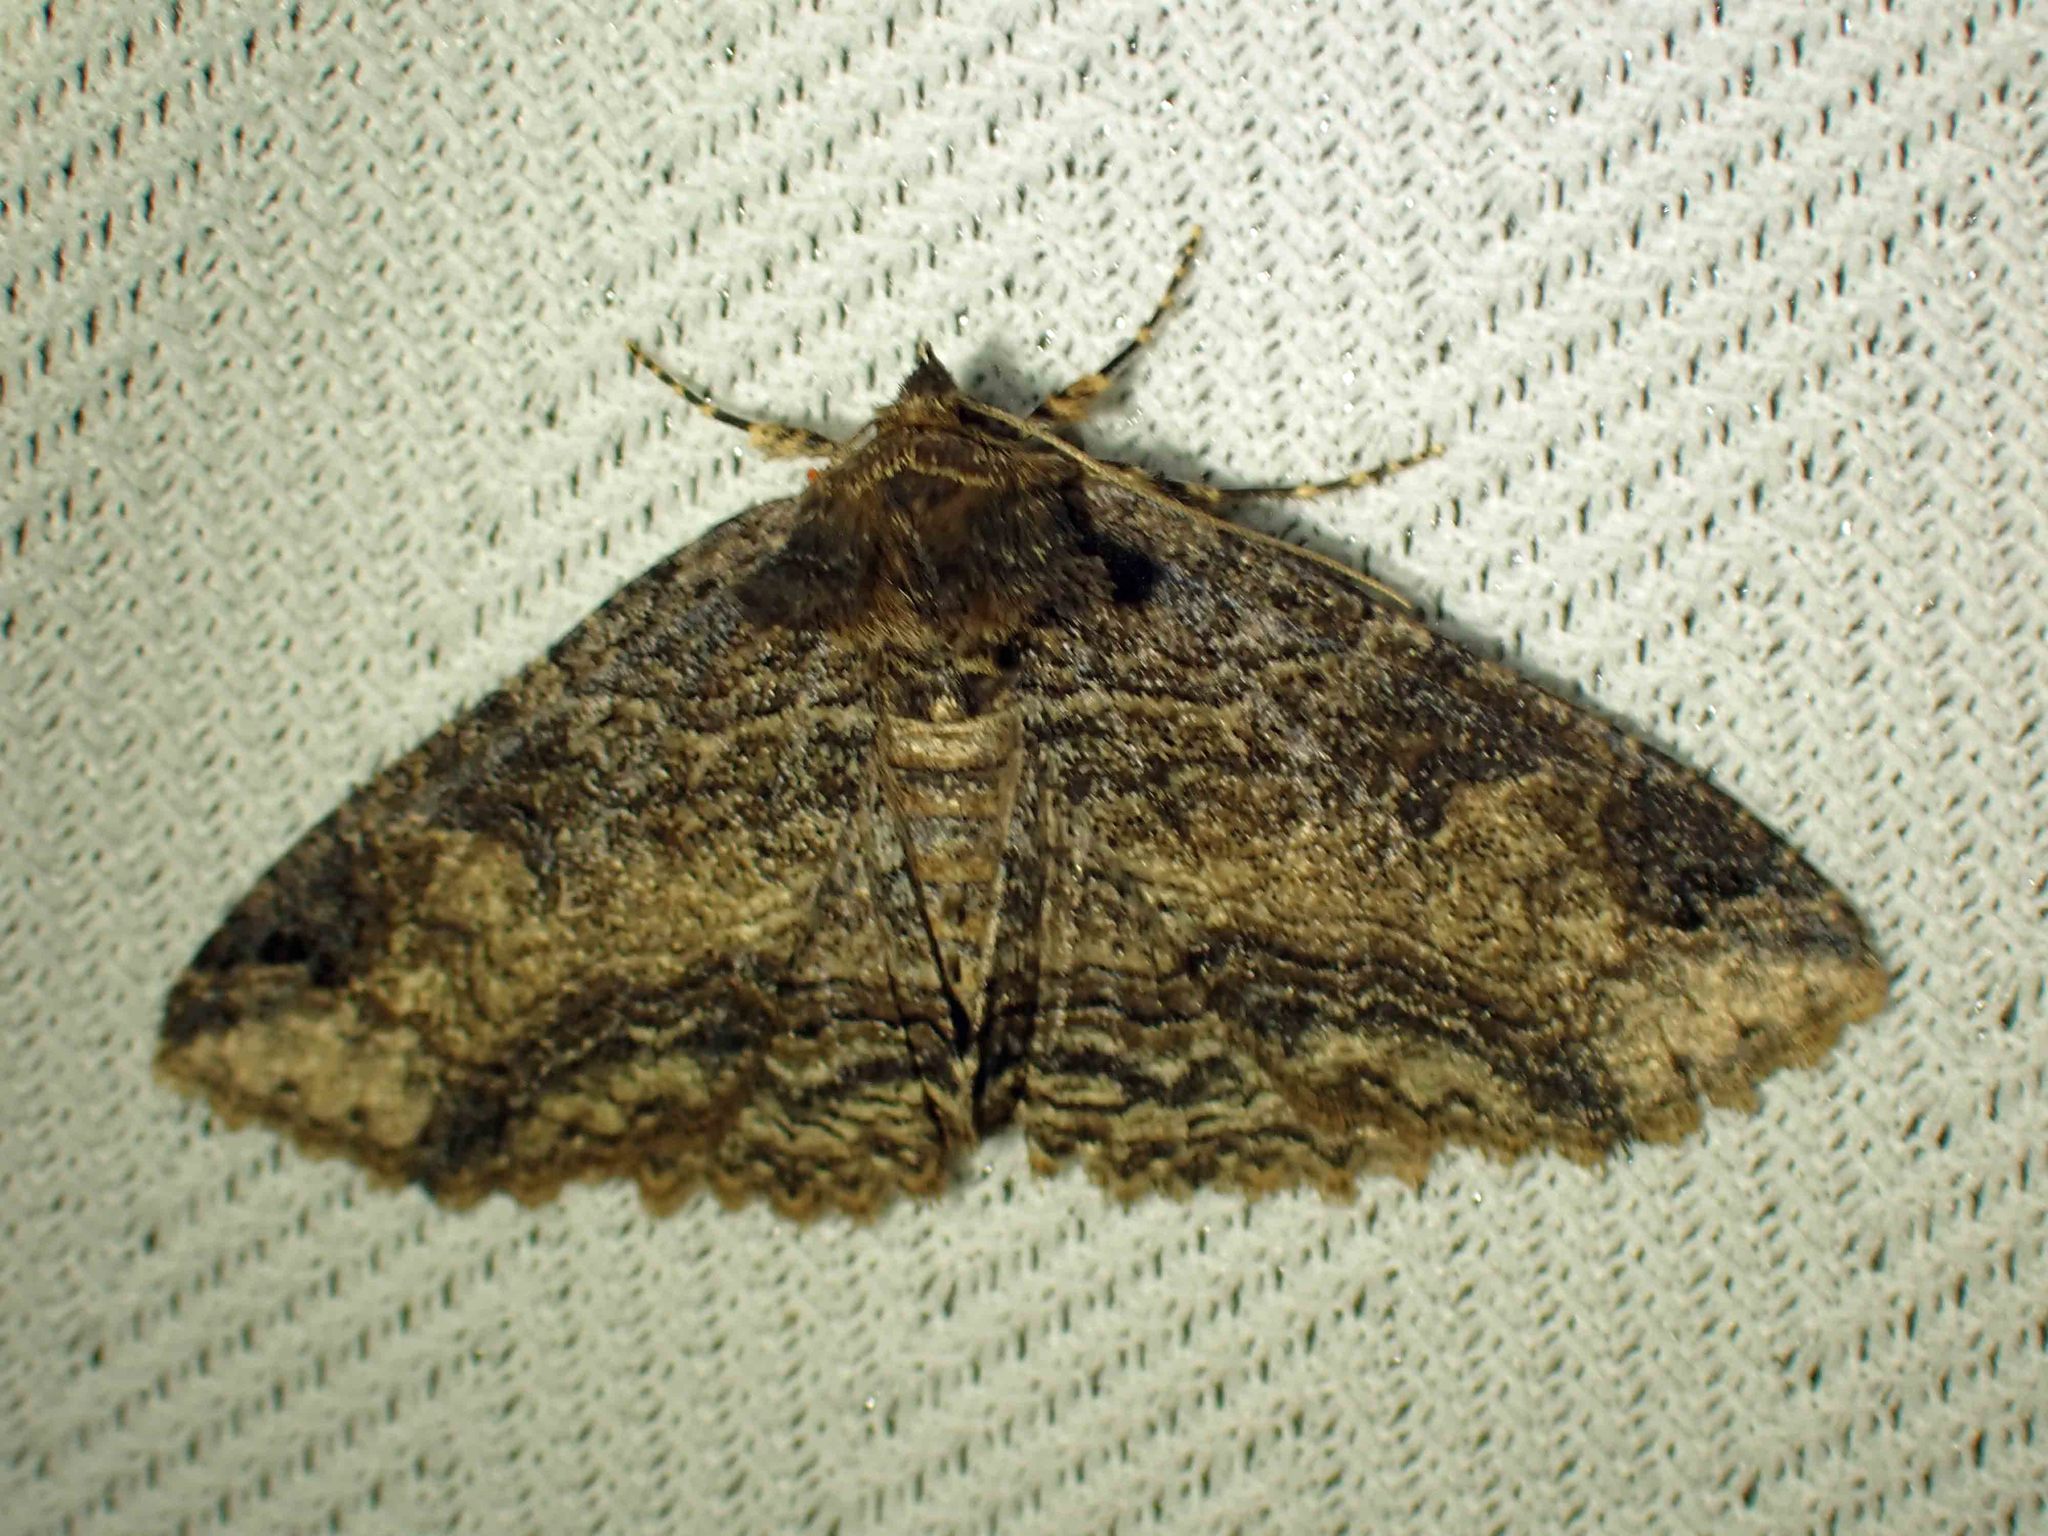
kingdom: Animalia
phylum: Arthropoda
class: Insecta
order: Lepidoptera
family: Erebidae
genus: Zale
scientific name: Zale minerea
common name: Colorful zale moth
